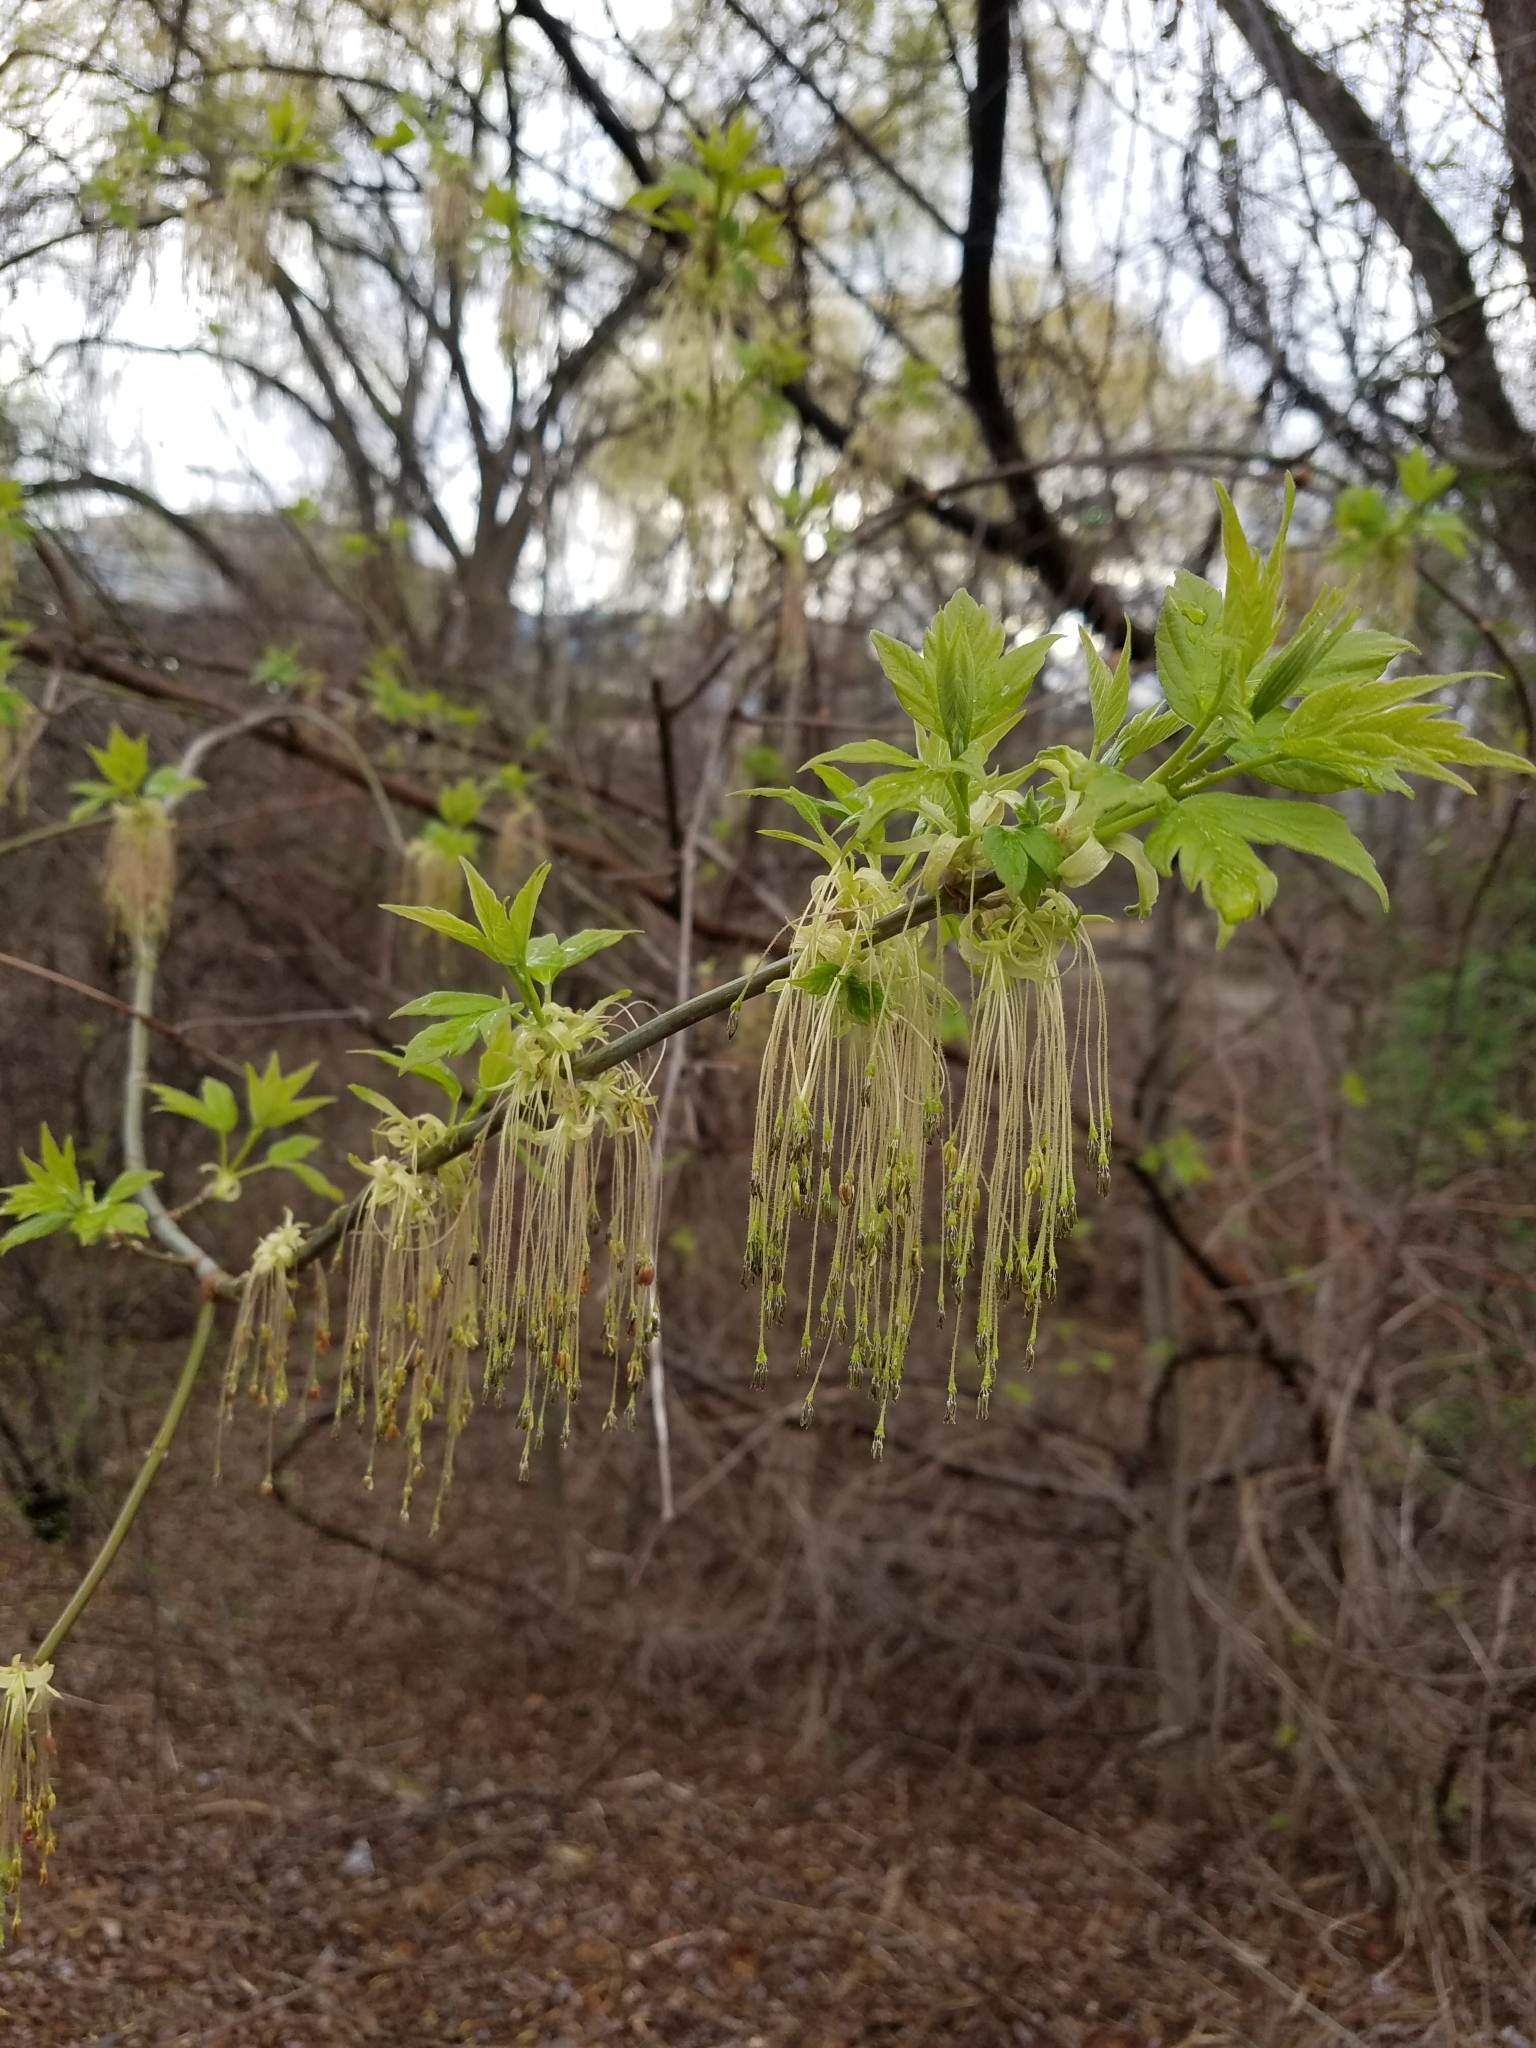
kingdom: Plantae
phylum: Tracheophyta
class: Magnoliopsida
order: Sapindales
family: Sapindaceae
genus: Acer
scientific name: Acer negundo
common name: Ashleaf maple
